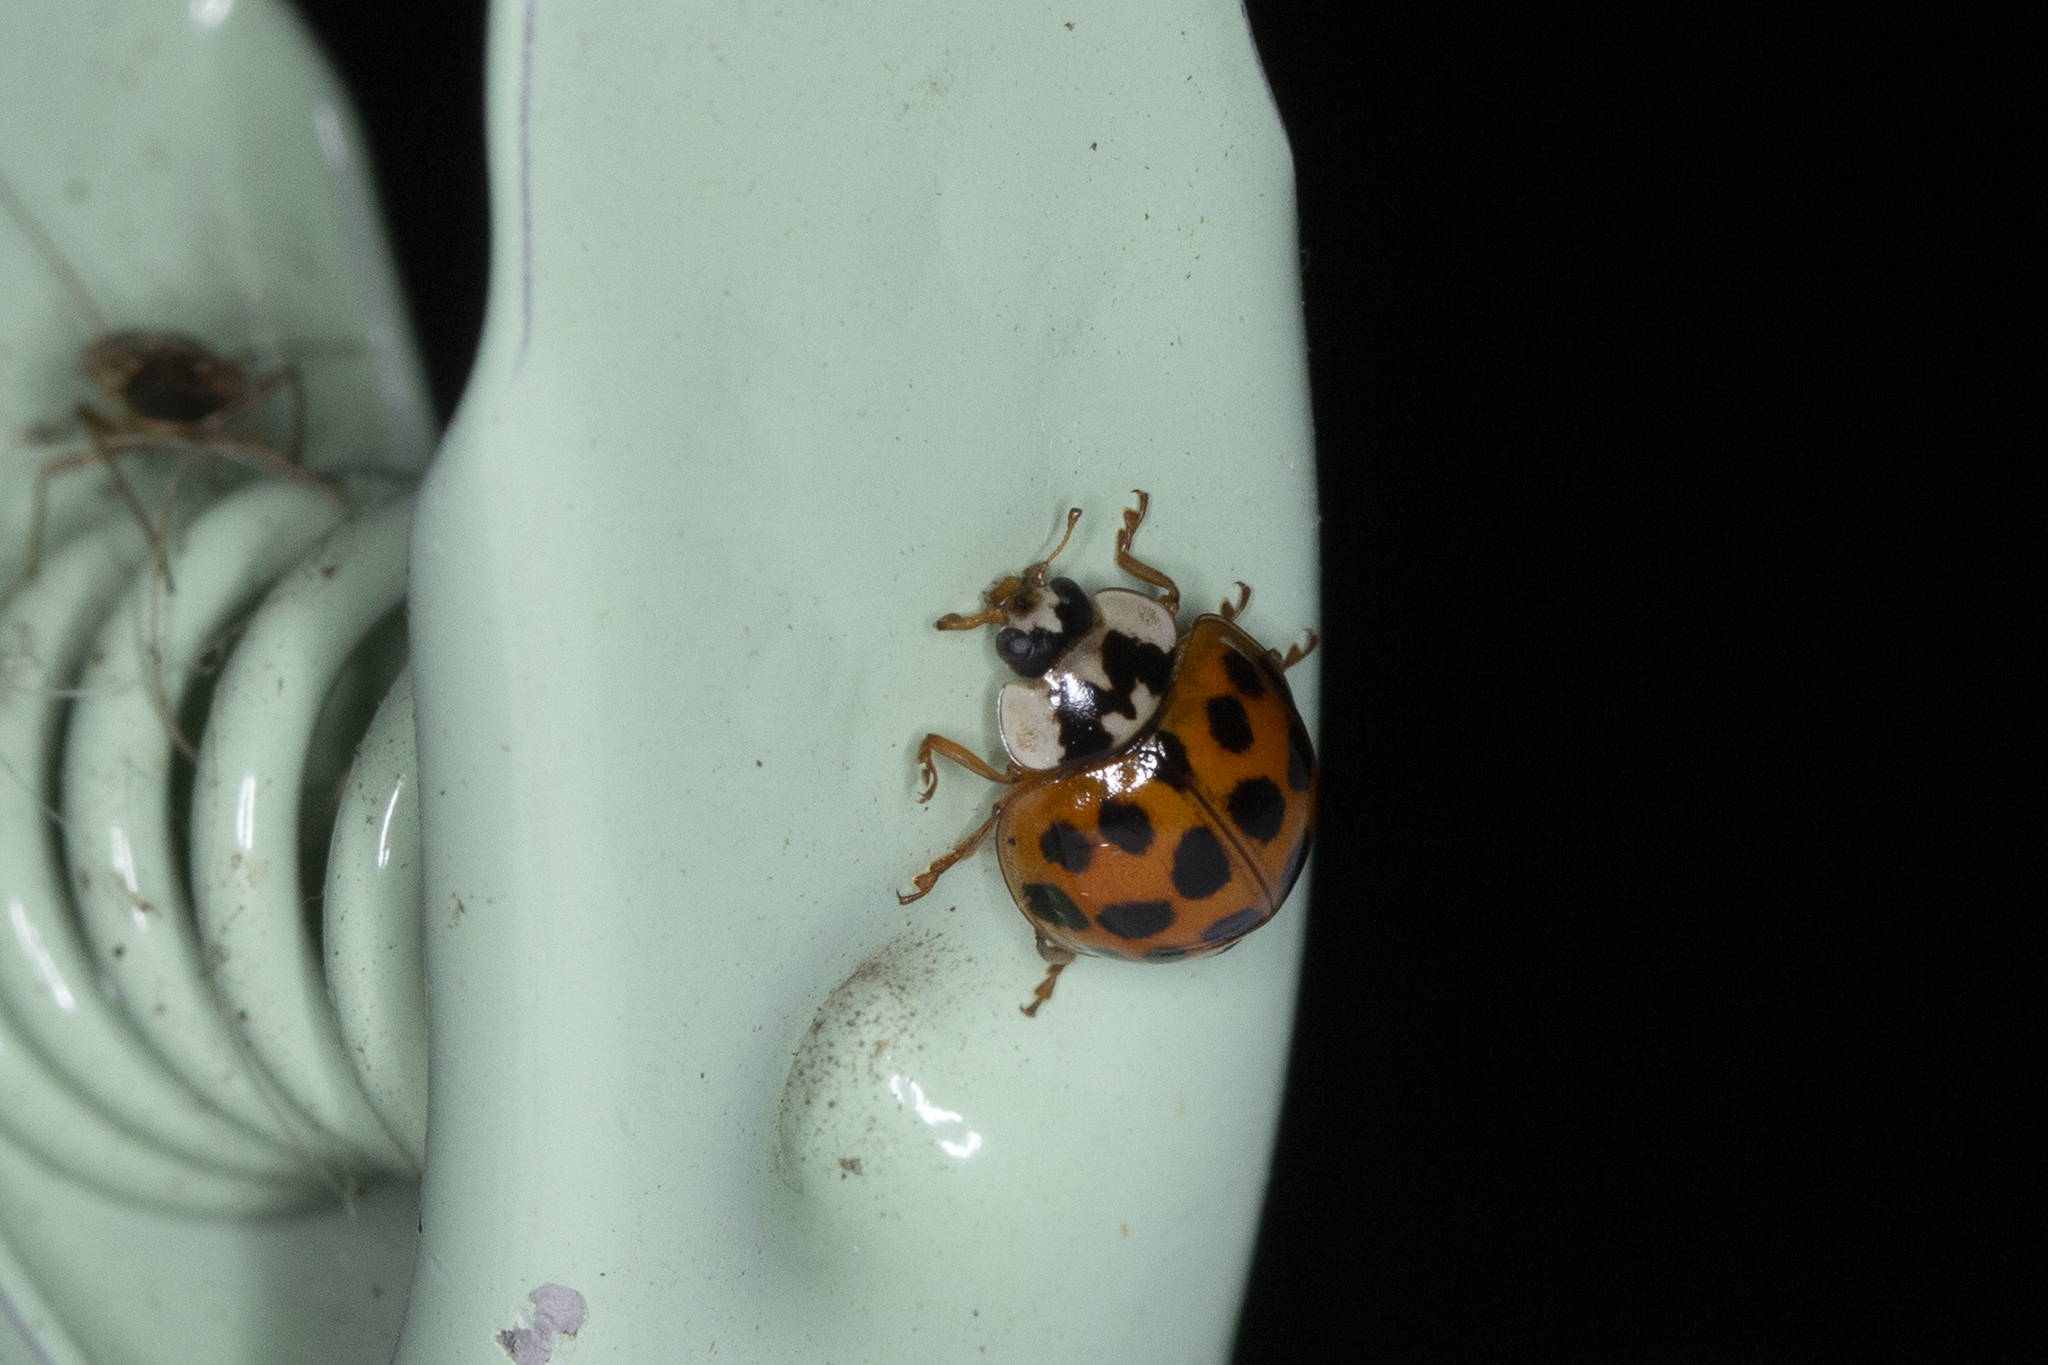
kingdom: Animalia
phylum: Arthropoda
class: Insecta
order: Coleoptera
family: Coccinellidae
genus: Harmonia
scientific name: Harmonia axyridis
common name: Harlequin ladybird
